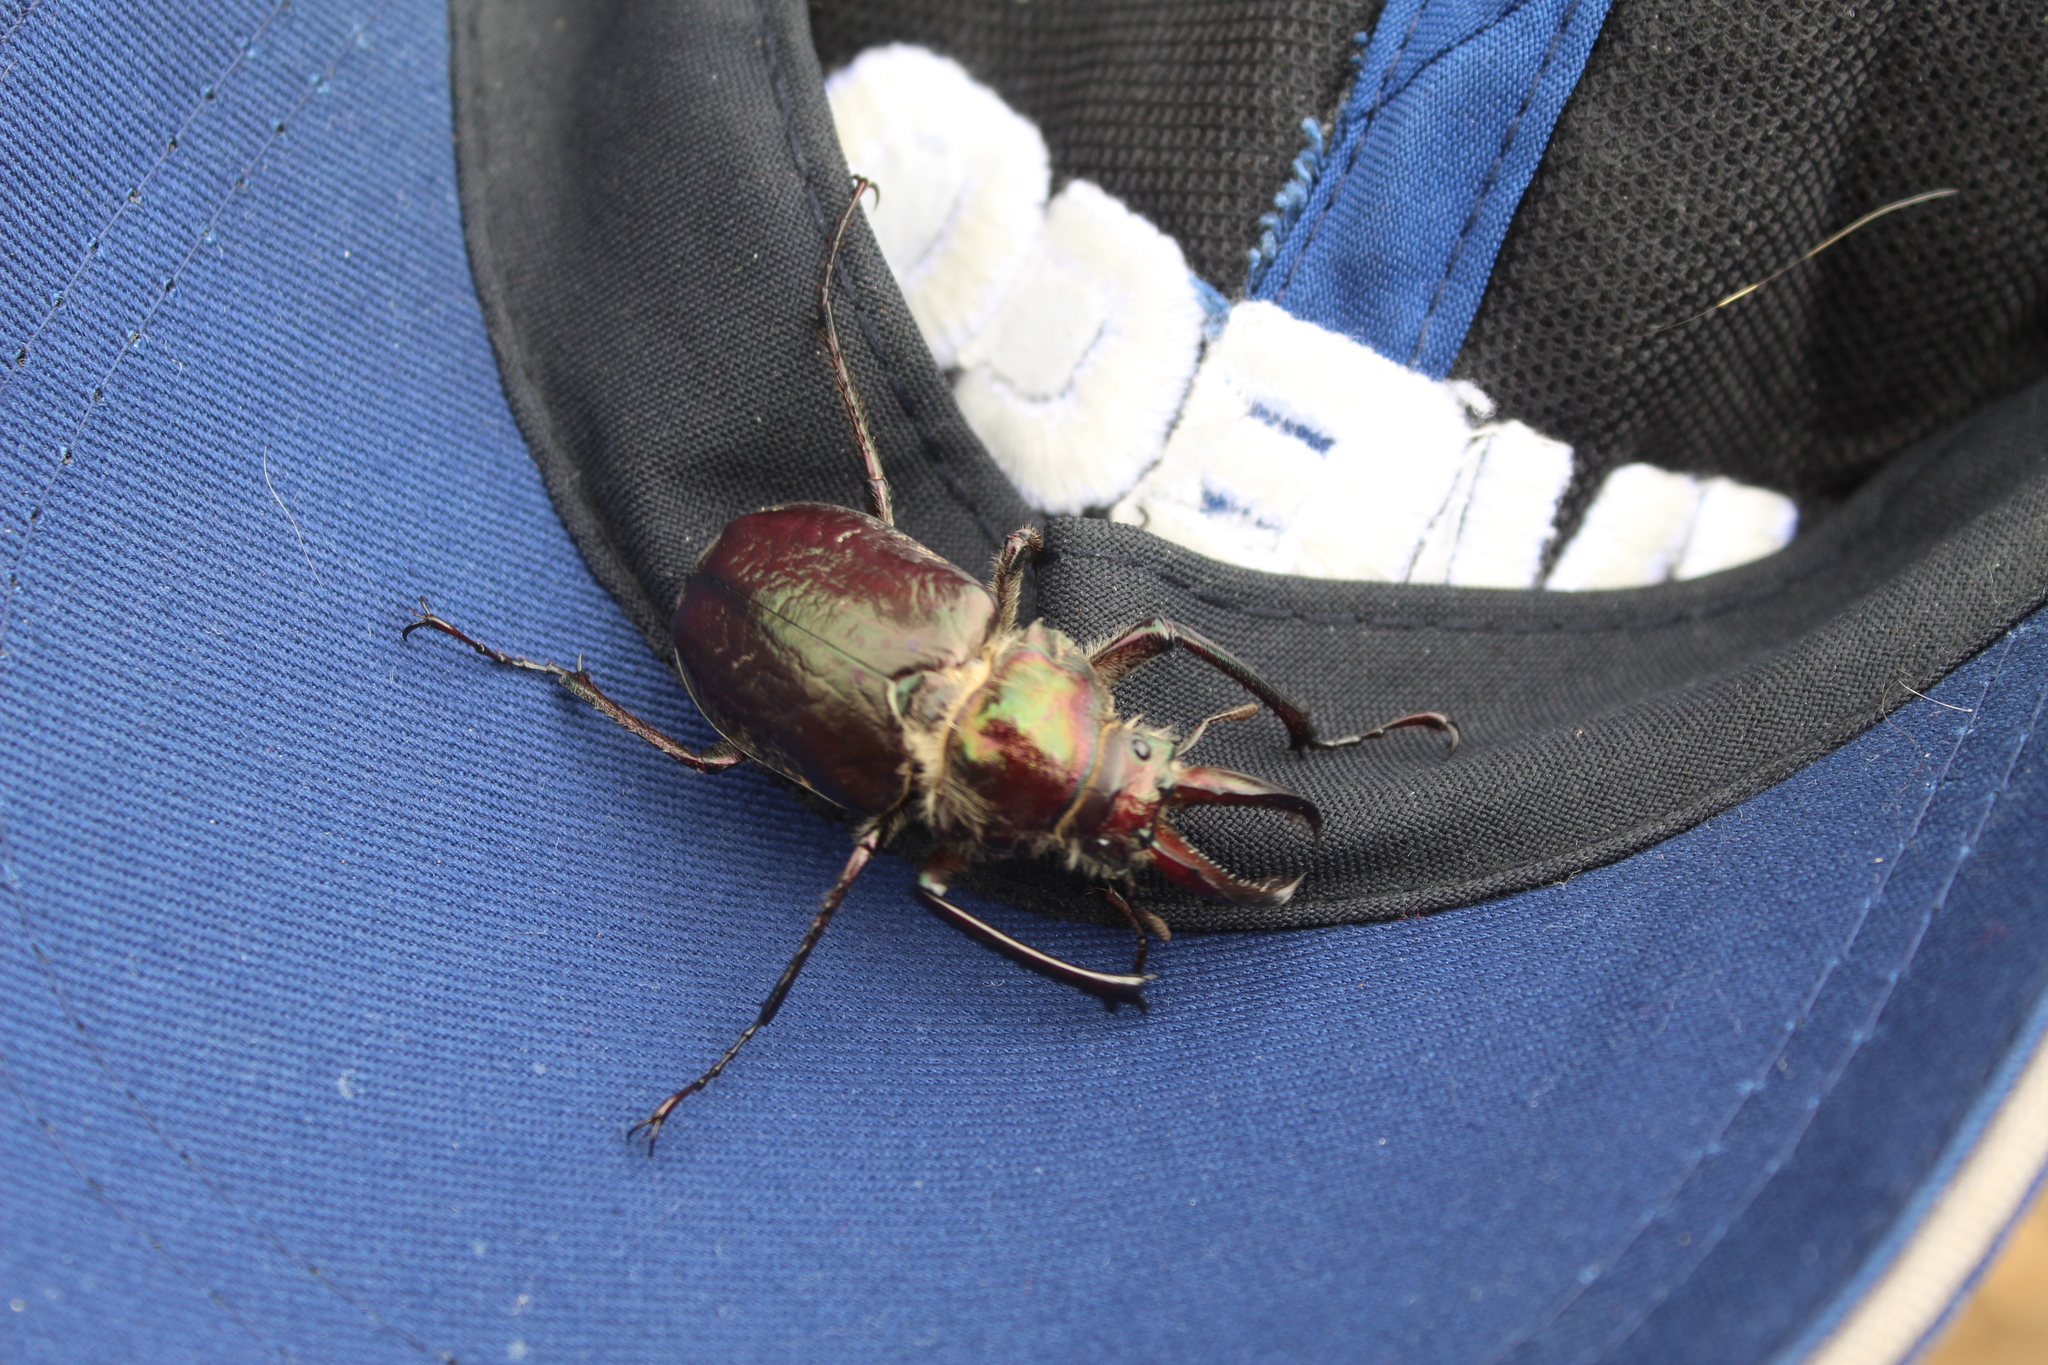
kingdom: Animalia
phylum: Arthropoda
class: Insecta
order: Coleoptera
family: Lucanidae
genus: Sphaenognathus
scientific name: Sphaenognathus armatus
